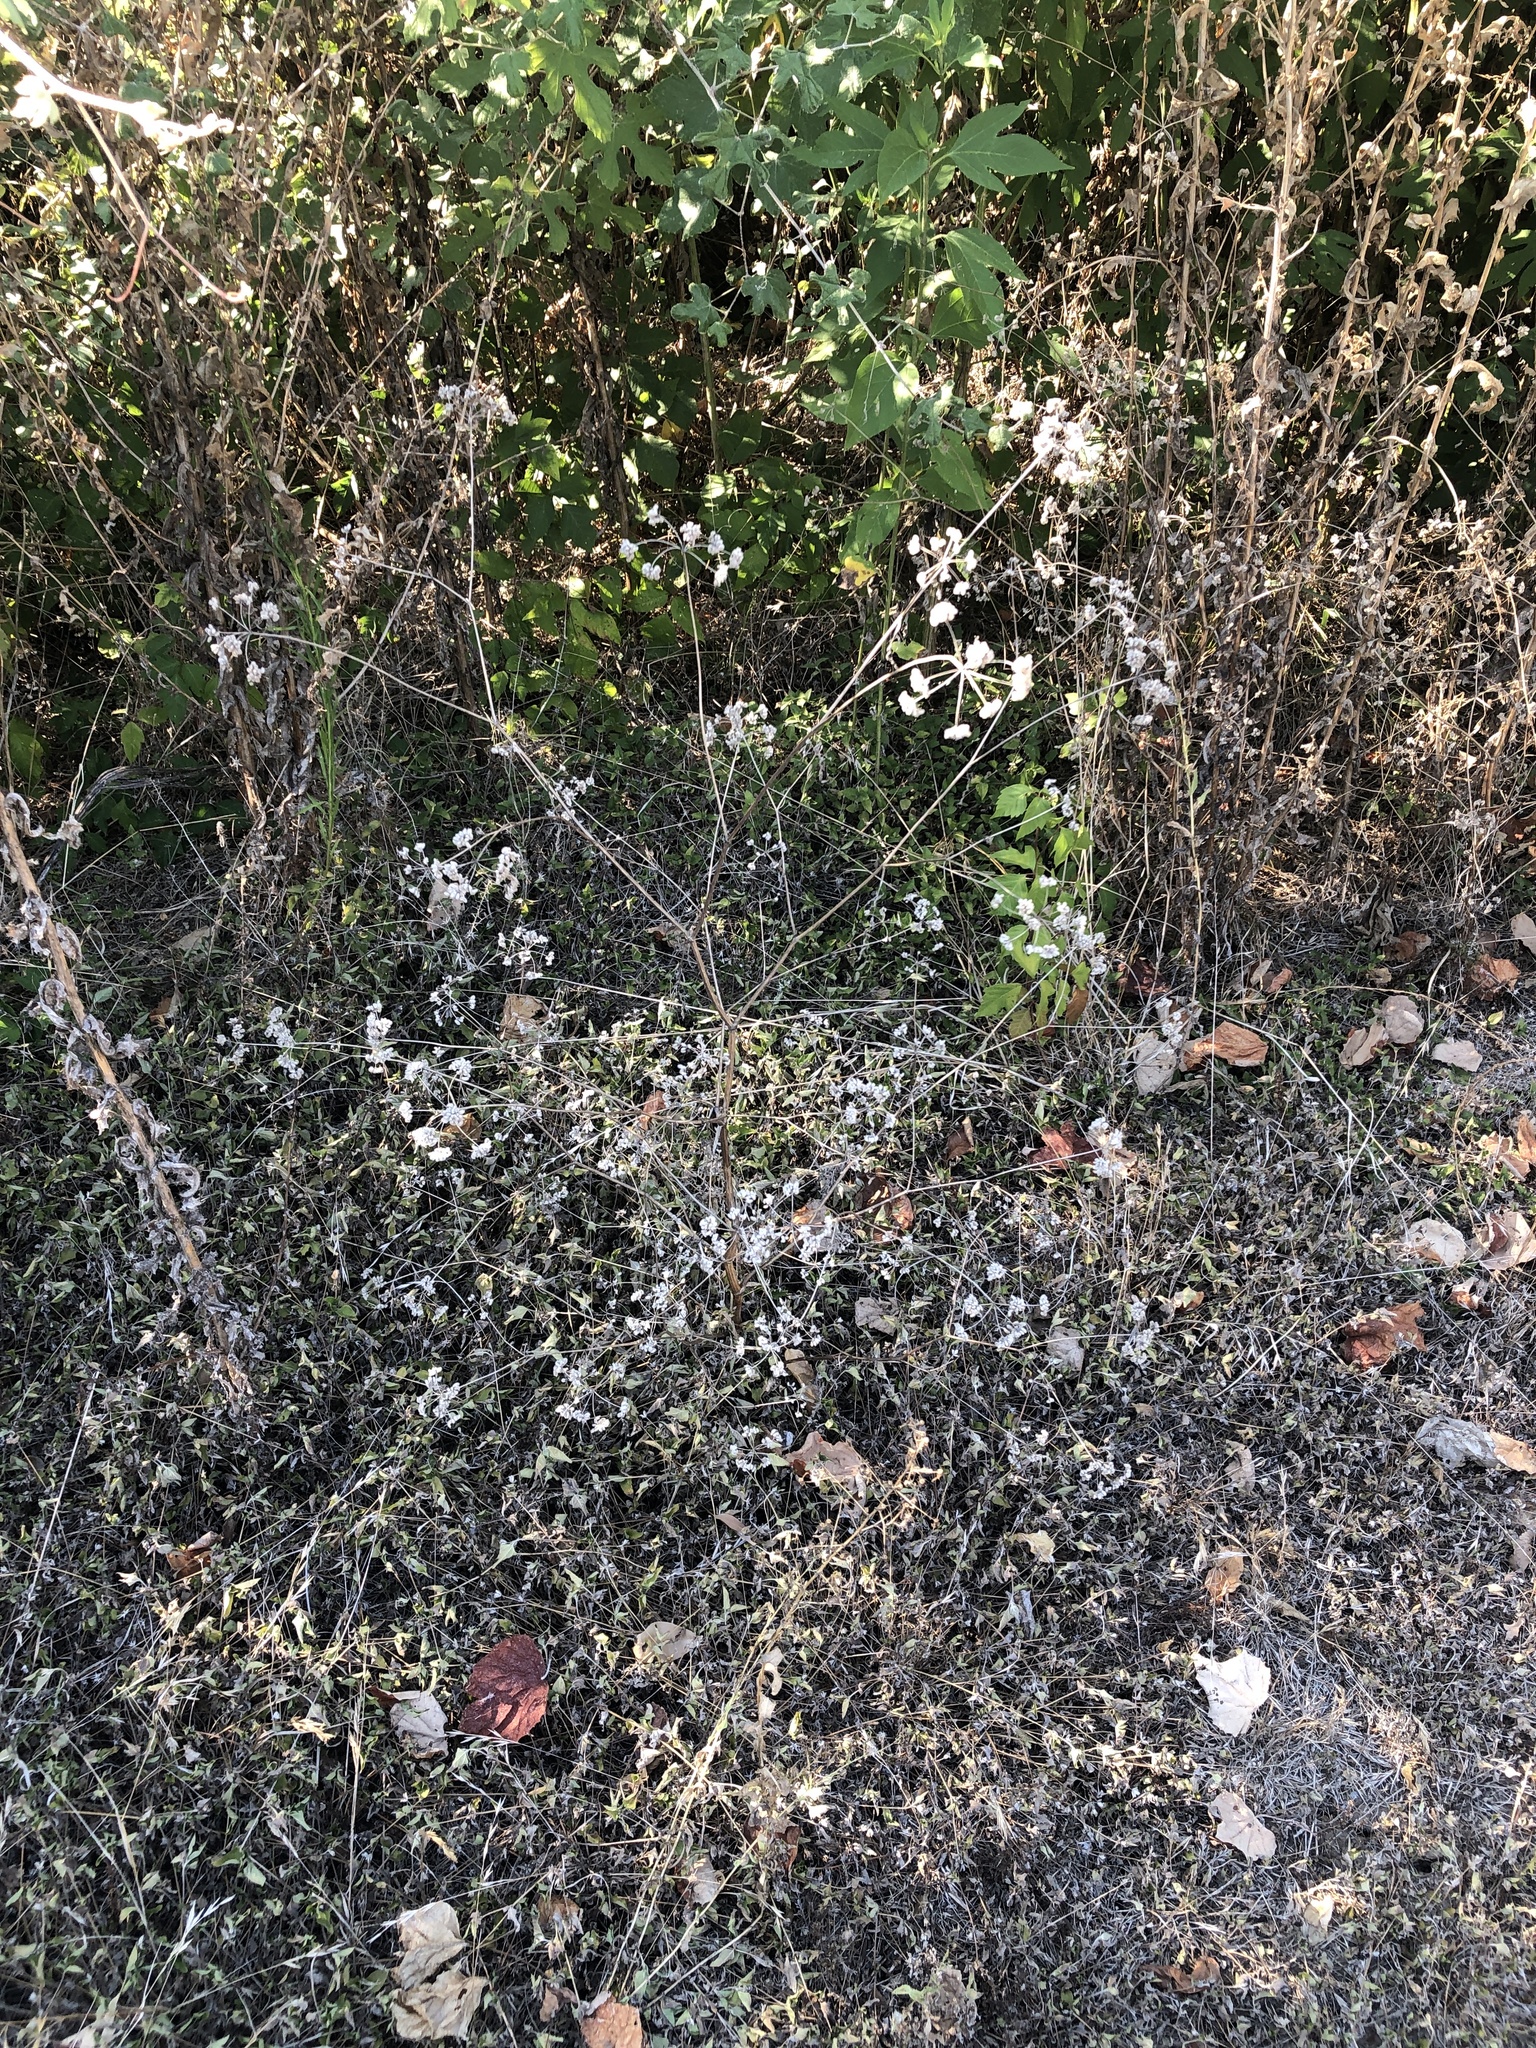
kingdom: Plantae
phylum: Tracheophyta
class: Magnoliopsida
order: Apiales
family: Apiaceae
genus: Torilis
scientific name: Torilis arvensis
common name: Spreading hedge-parsley
